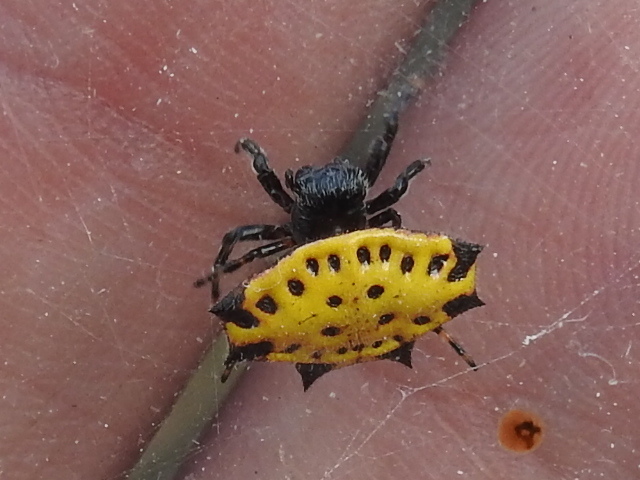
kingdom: Animalia
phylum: Arthropoda
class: Arachnida
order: Araneae
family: Araneidae
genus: Gasteracantha
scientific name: Gasteracantha cancriformis
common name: Orb weavers
